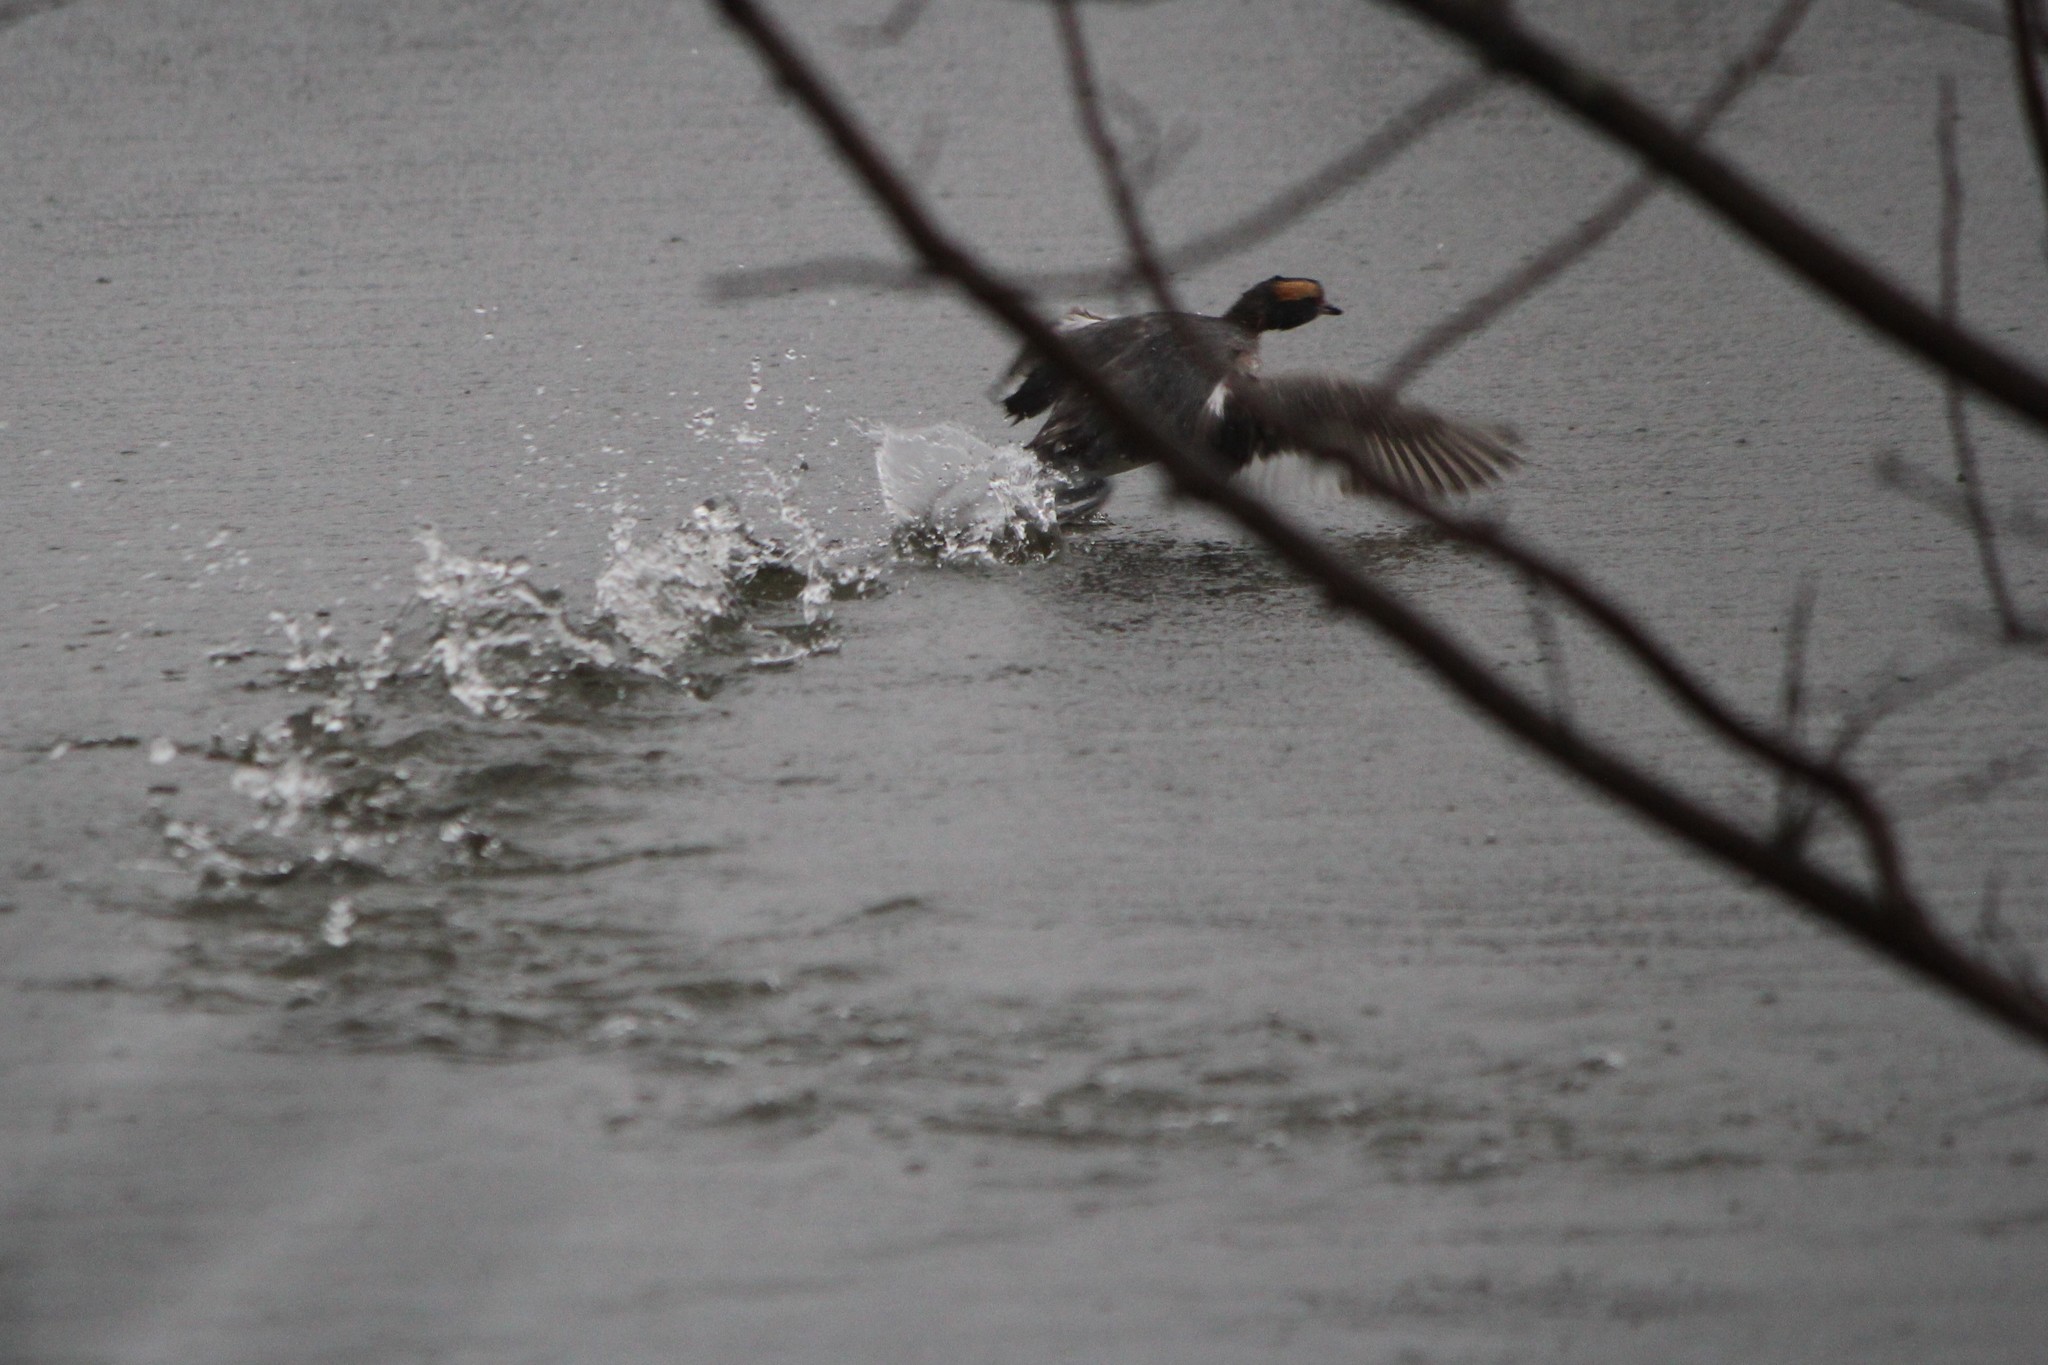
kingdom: Animalia
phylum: Chordata
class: Aves
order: Podicipediformes
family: Podicipedidae
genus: Podiceps
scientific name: Podiceps auritus
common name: Horned grebe
